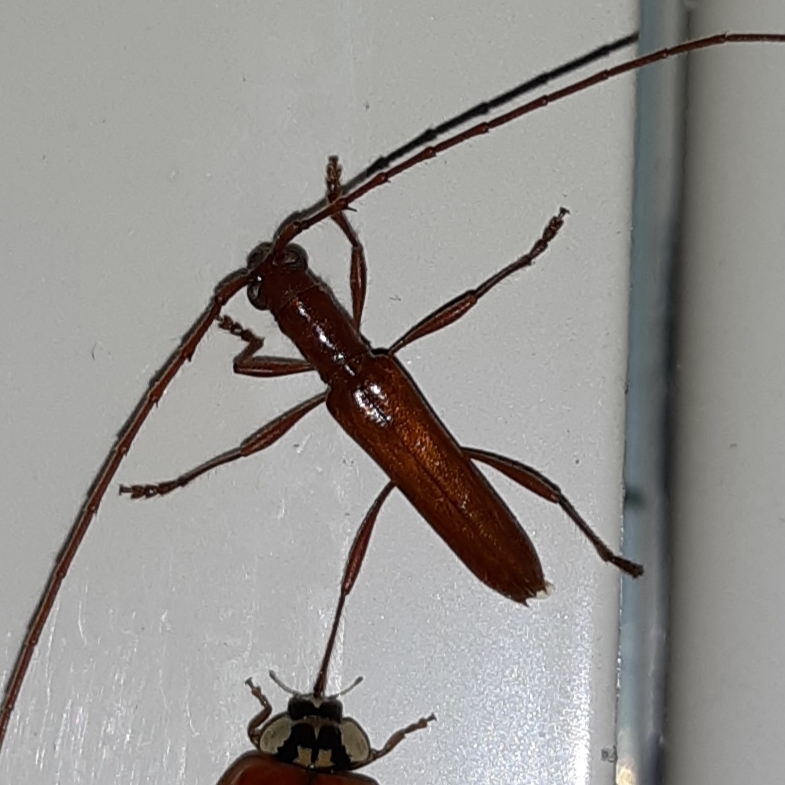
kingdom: Animalia
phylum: Arthropoda
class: Insecta
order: Coleoptera
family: Cerambycidae
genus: Aneflomorpha
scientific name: Aneflomorpha subpubescens
